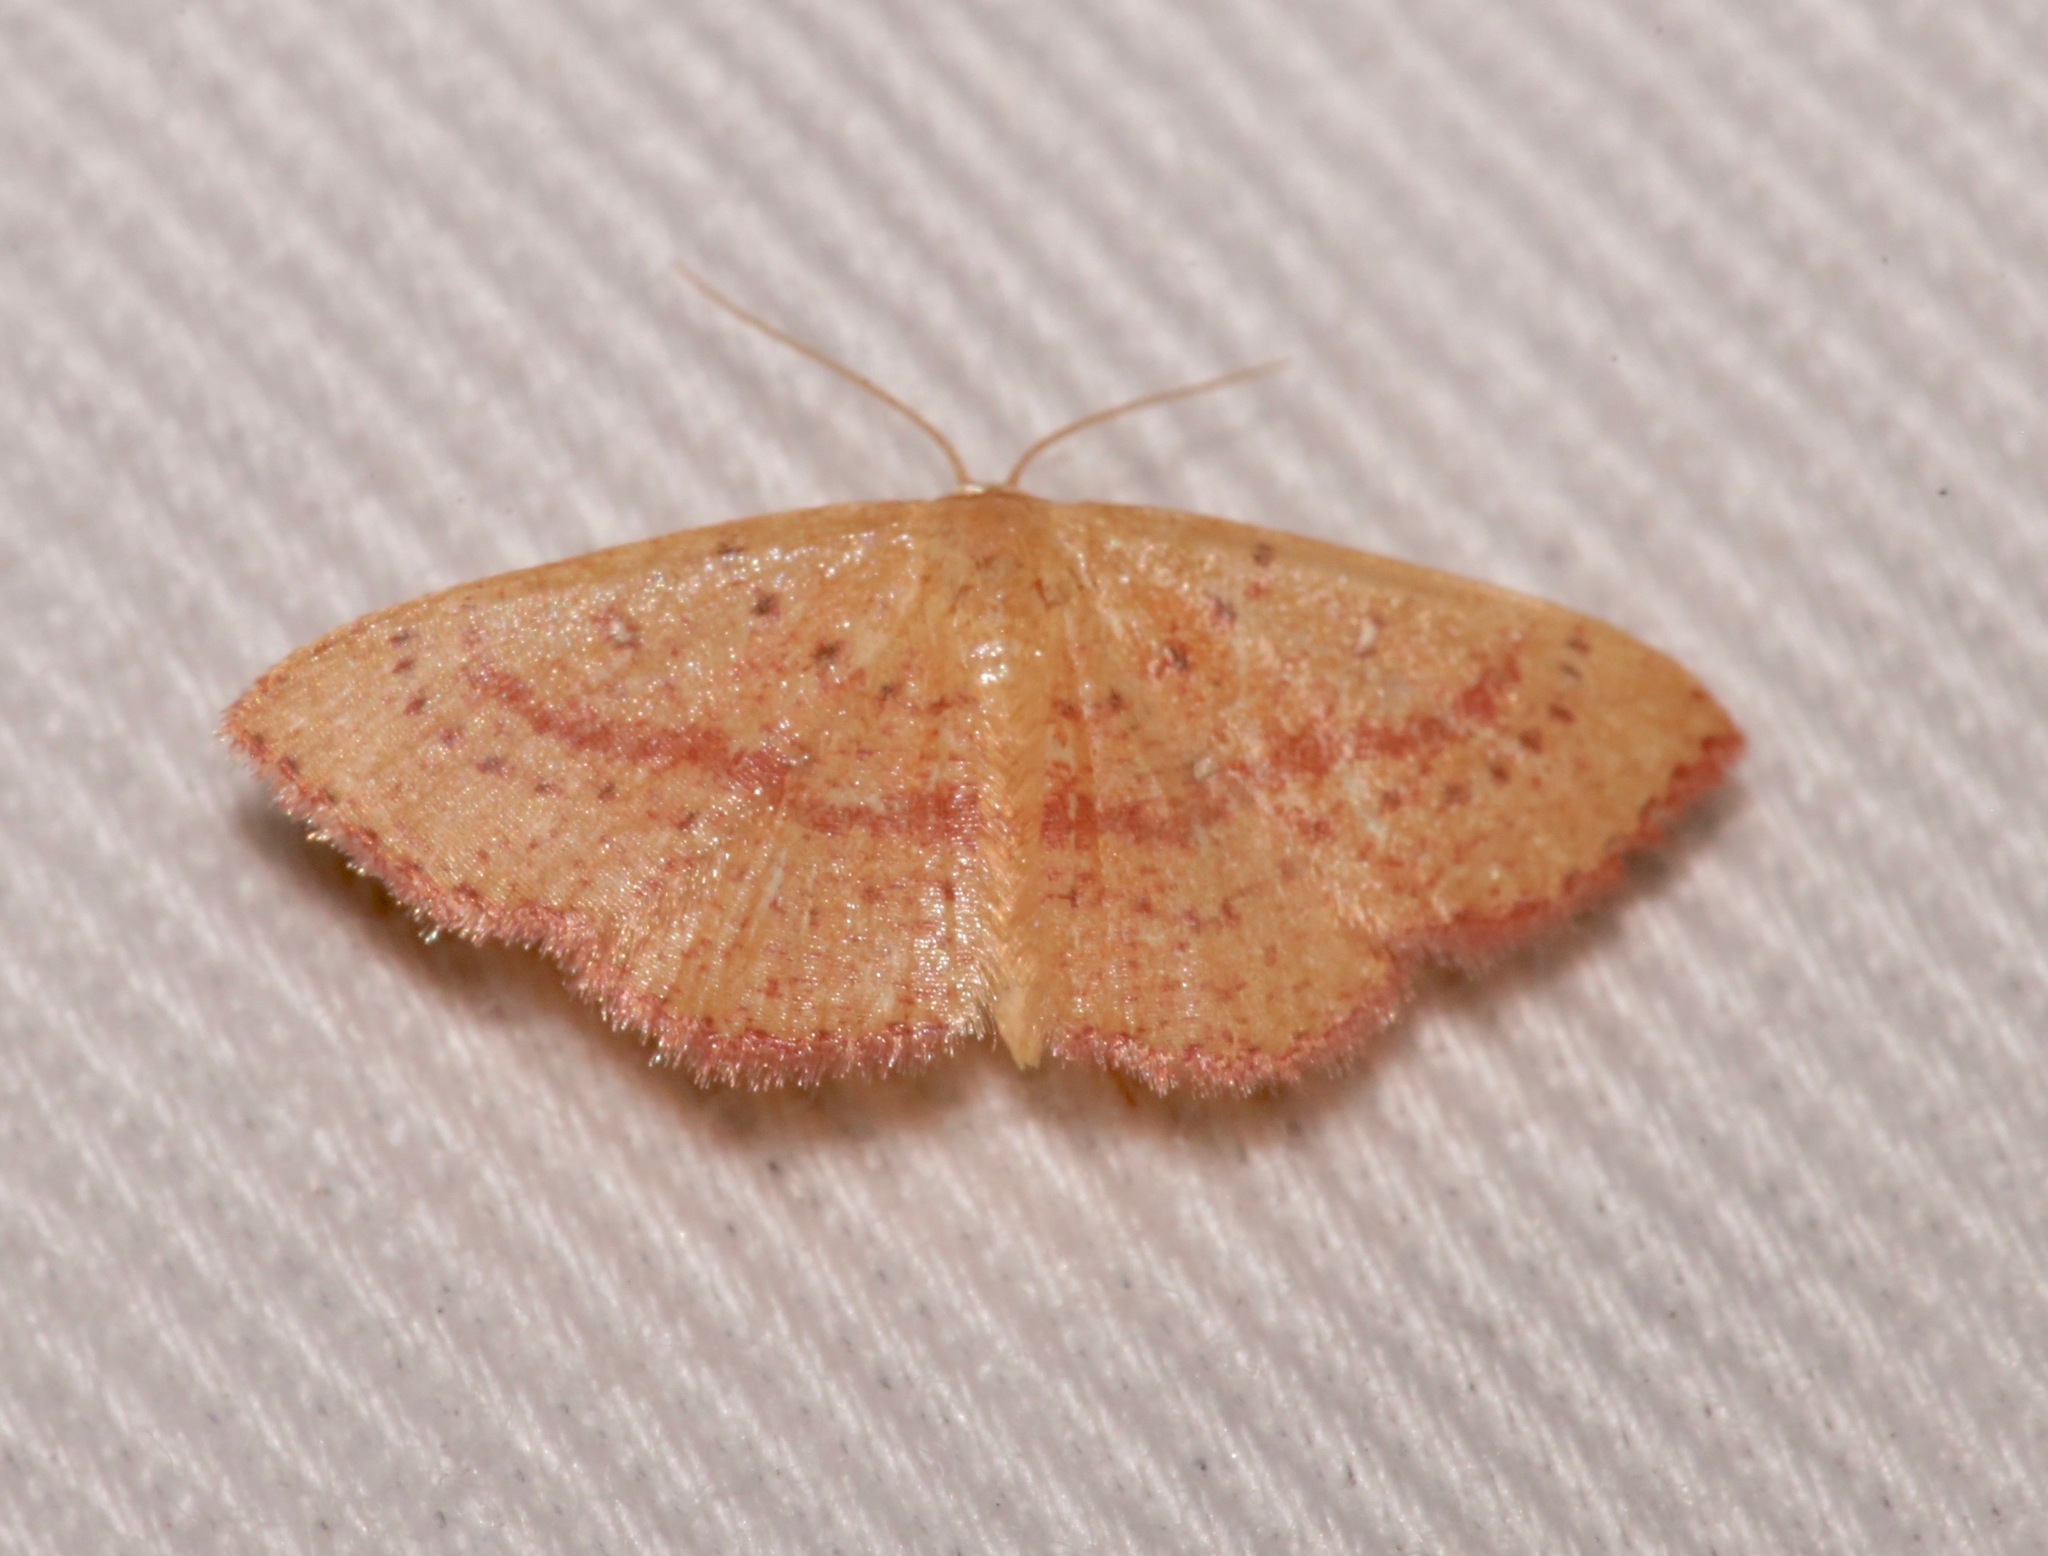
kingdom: Animalia
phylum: Arthropoda
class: Insecta
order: Lepidoptera
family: Geometridae
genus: Cyclophora
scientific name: Cyclophora culicaria
